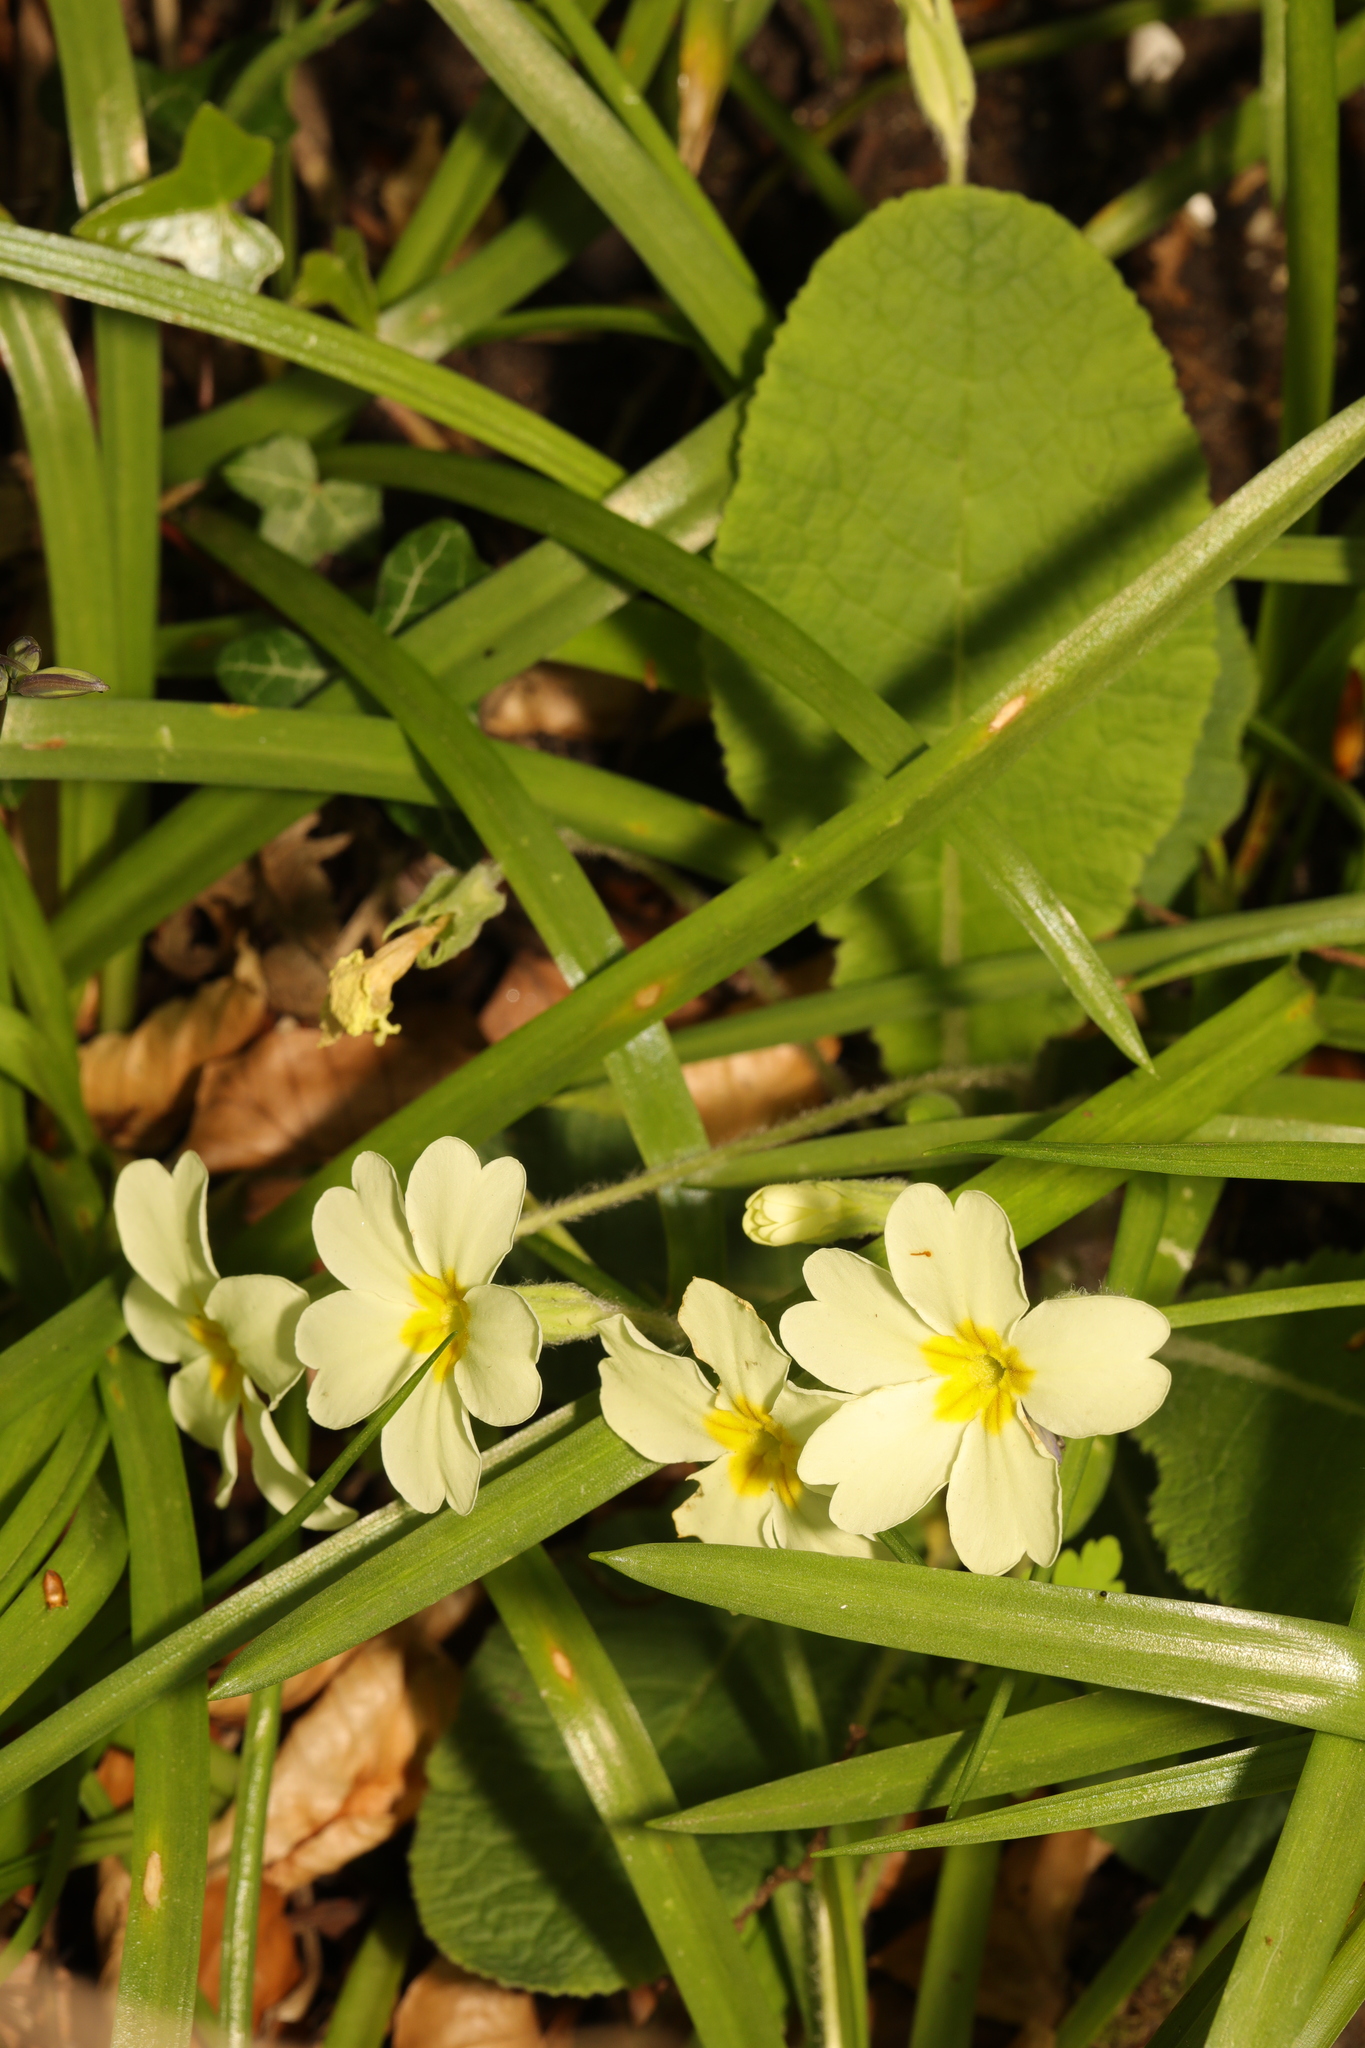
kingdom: Plantae
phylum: Tracheophyta
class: Magnoliopsida
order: Ericales
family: Primulaceae
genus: Primula
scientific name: Primula vulgaris
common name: Primrose
